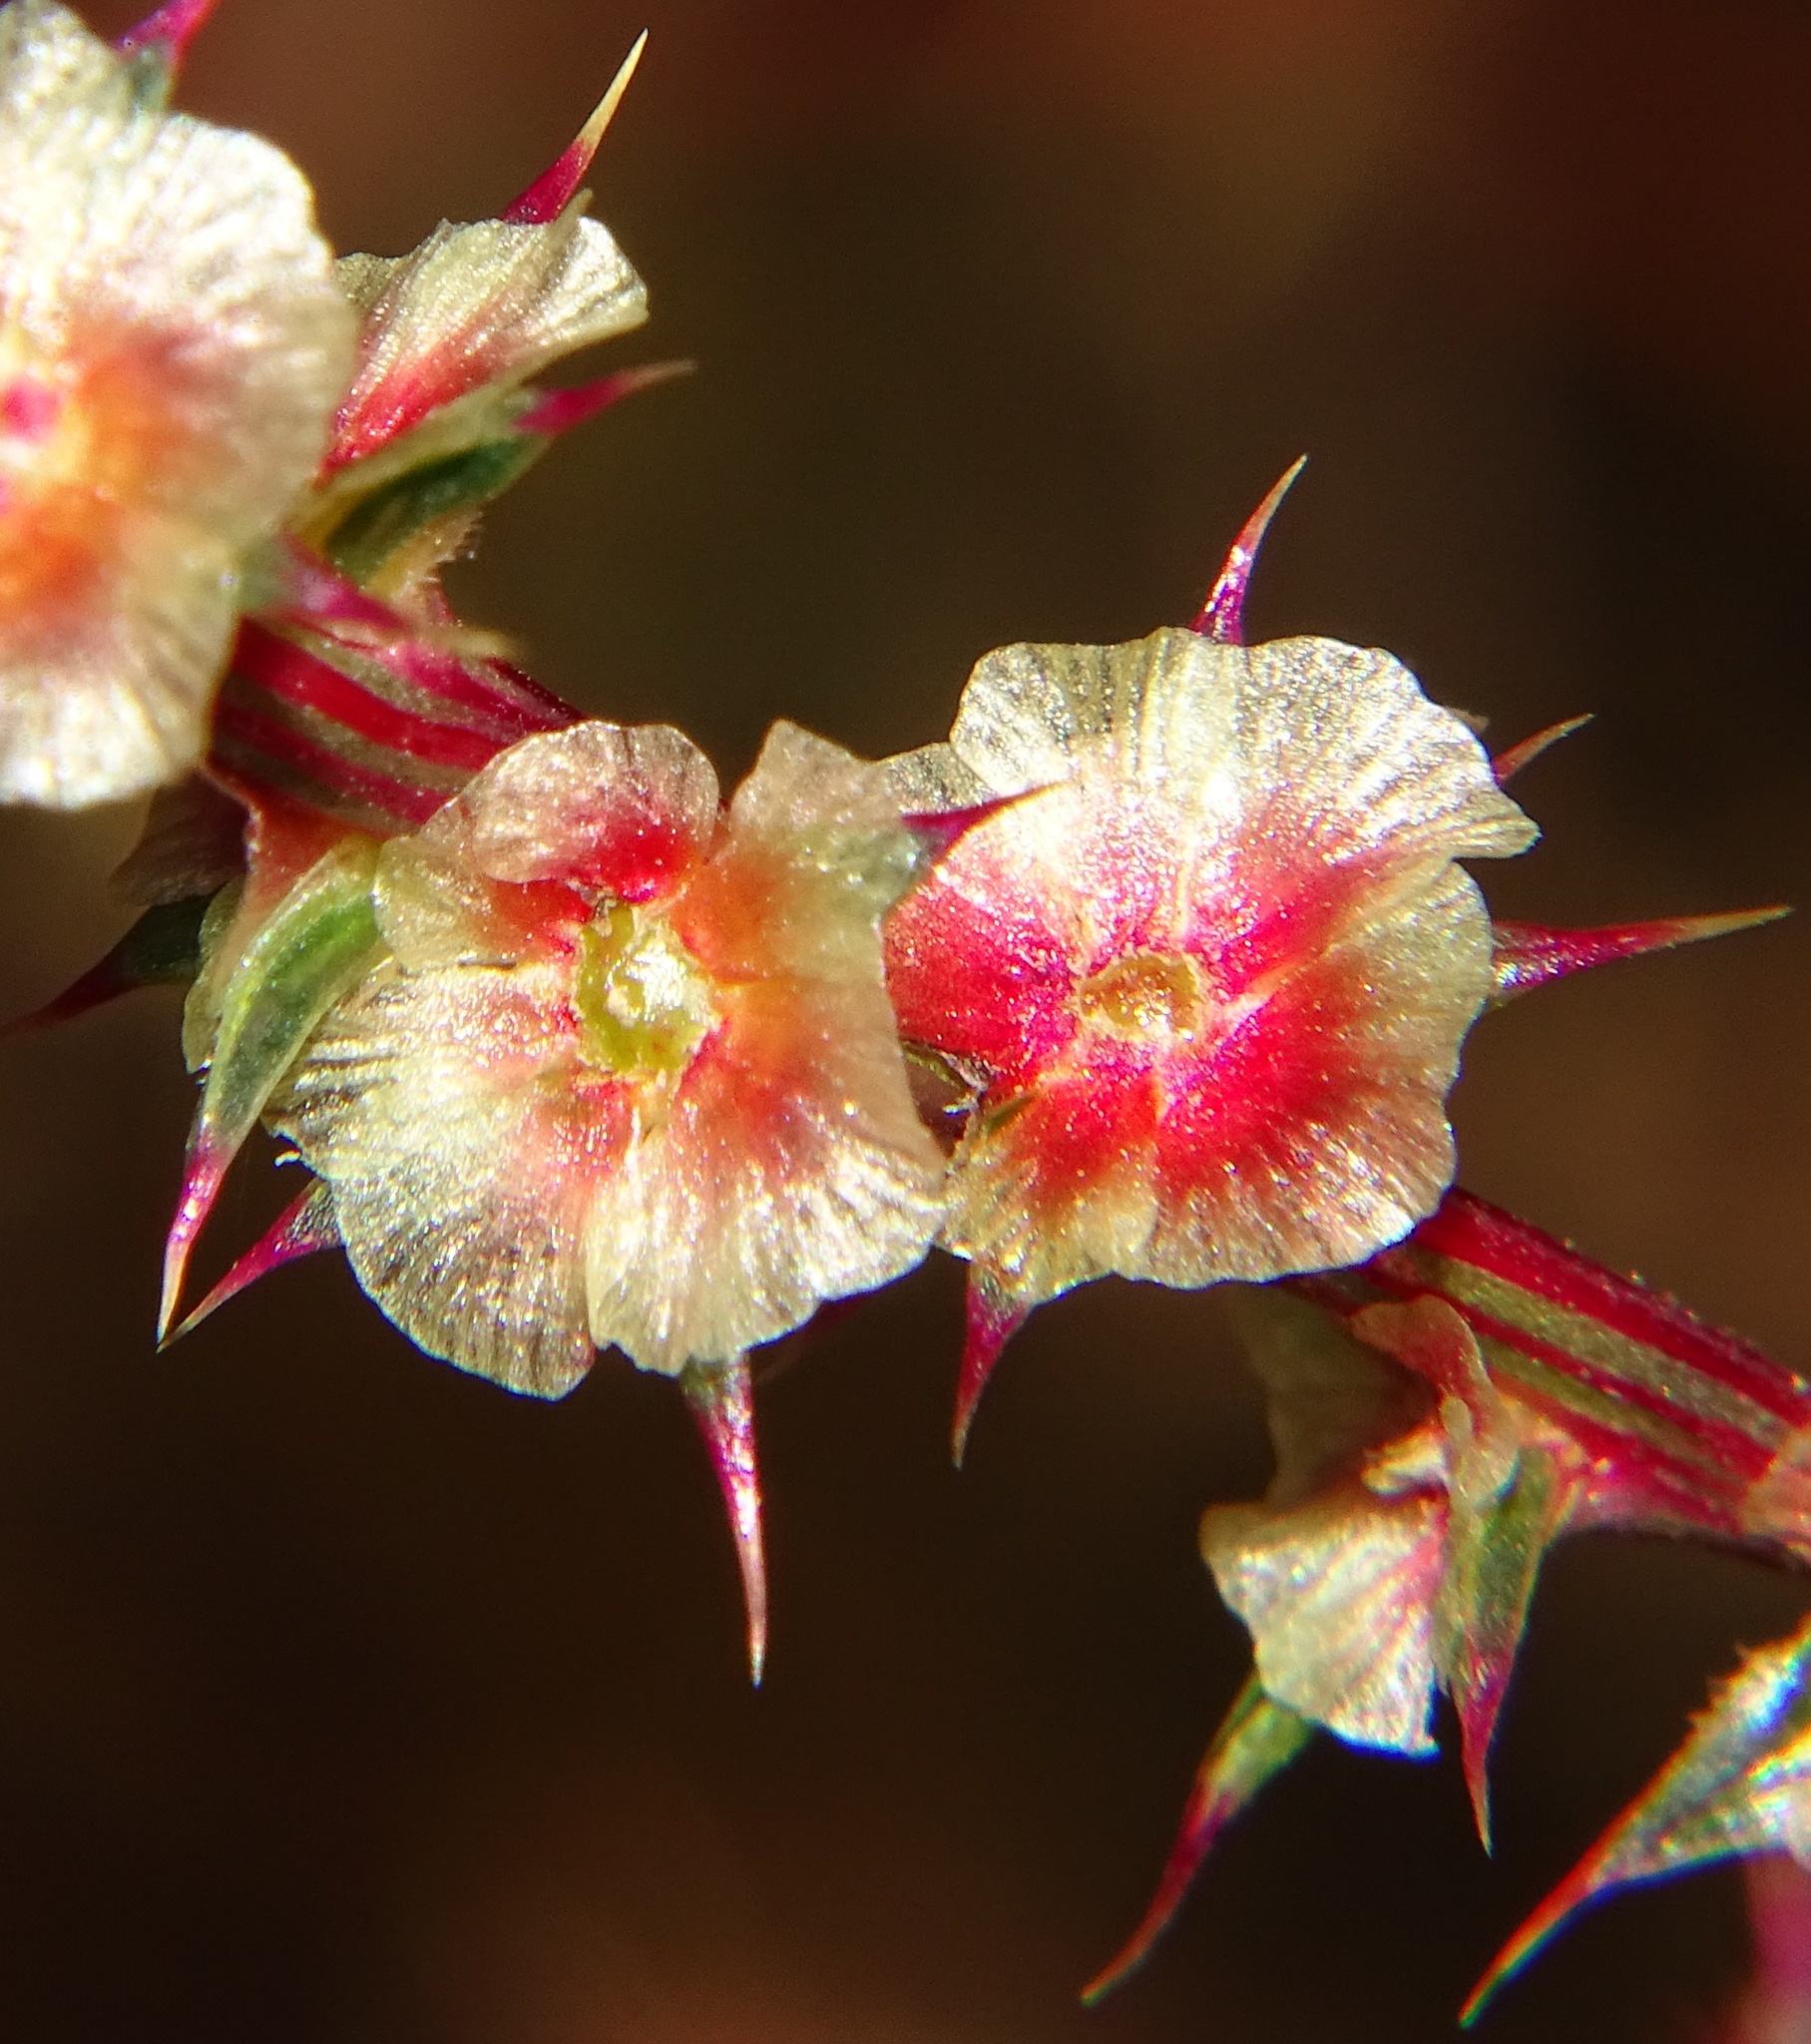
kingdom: Plantae
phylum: Tracheophyta
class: Magnoliopsida
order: Caryophyllales
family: Amaranthaceae
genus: Salsola
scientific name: Salsola australis
